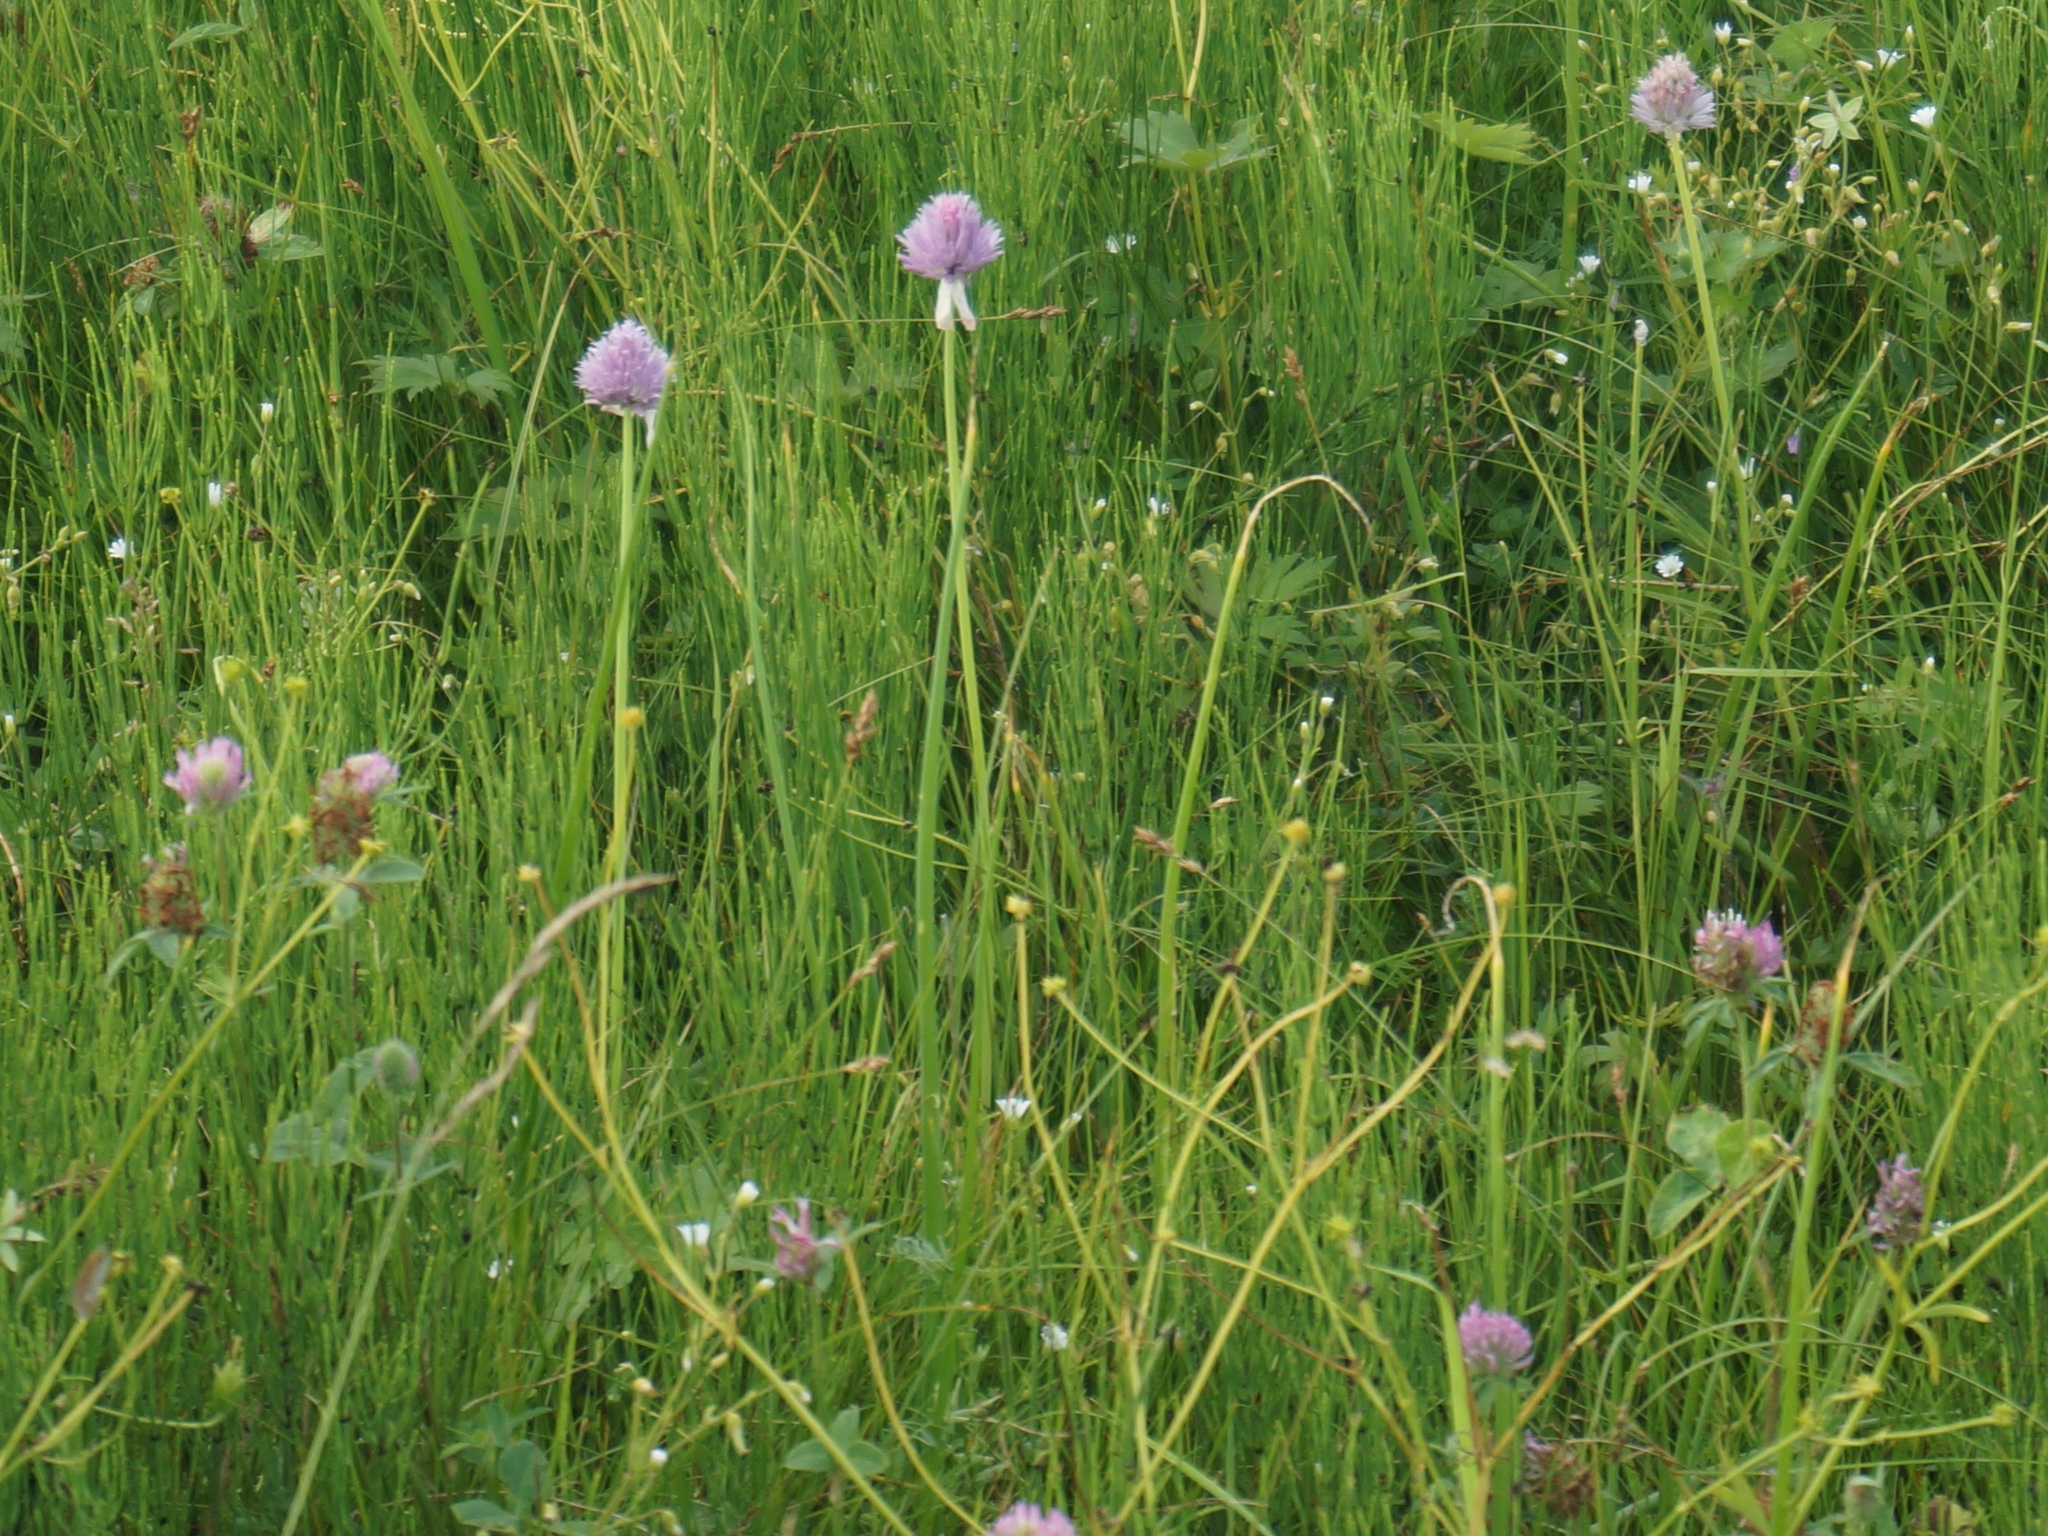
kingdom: Plantae
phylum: Tracheophyta
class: Liliopsida
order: Asparagales
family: Amaryllidaceae
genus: Allium
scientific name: Allium schoenoprasum
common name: Chives
